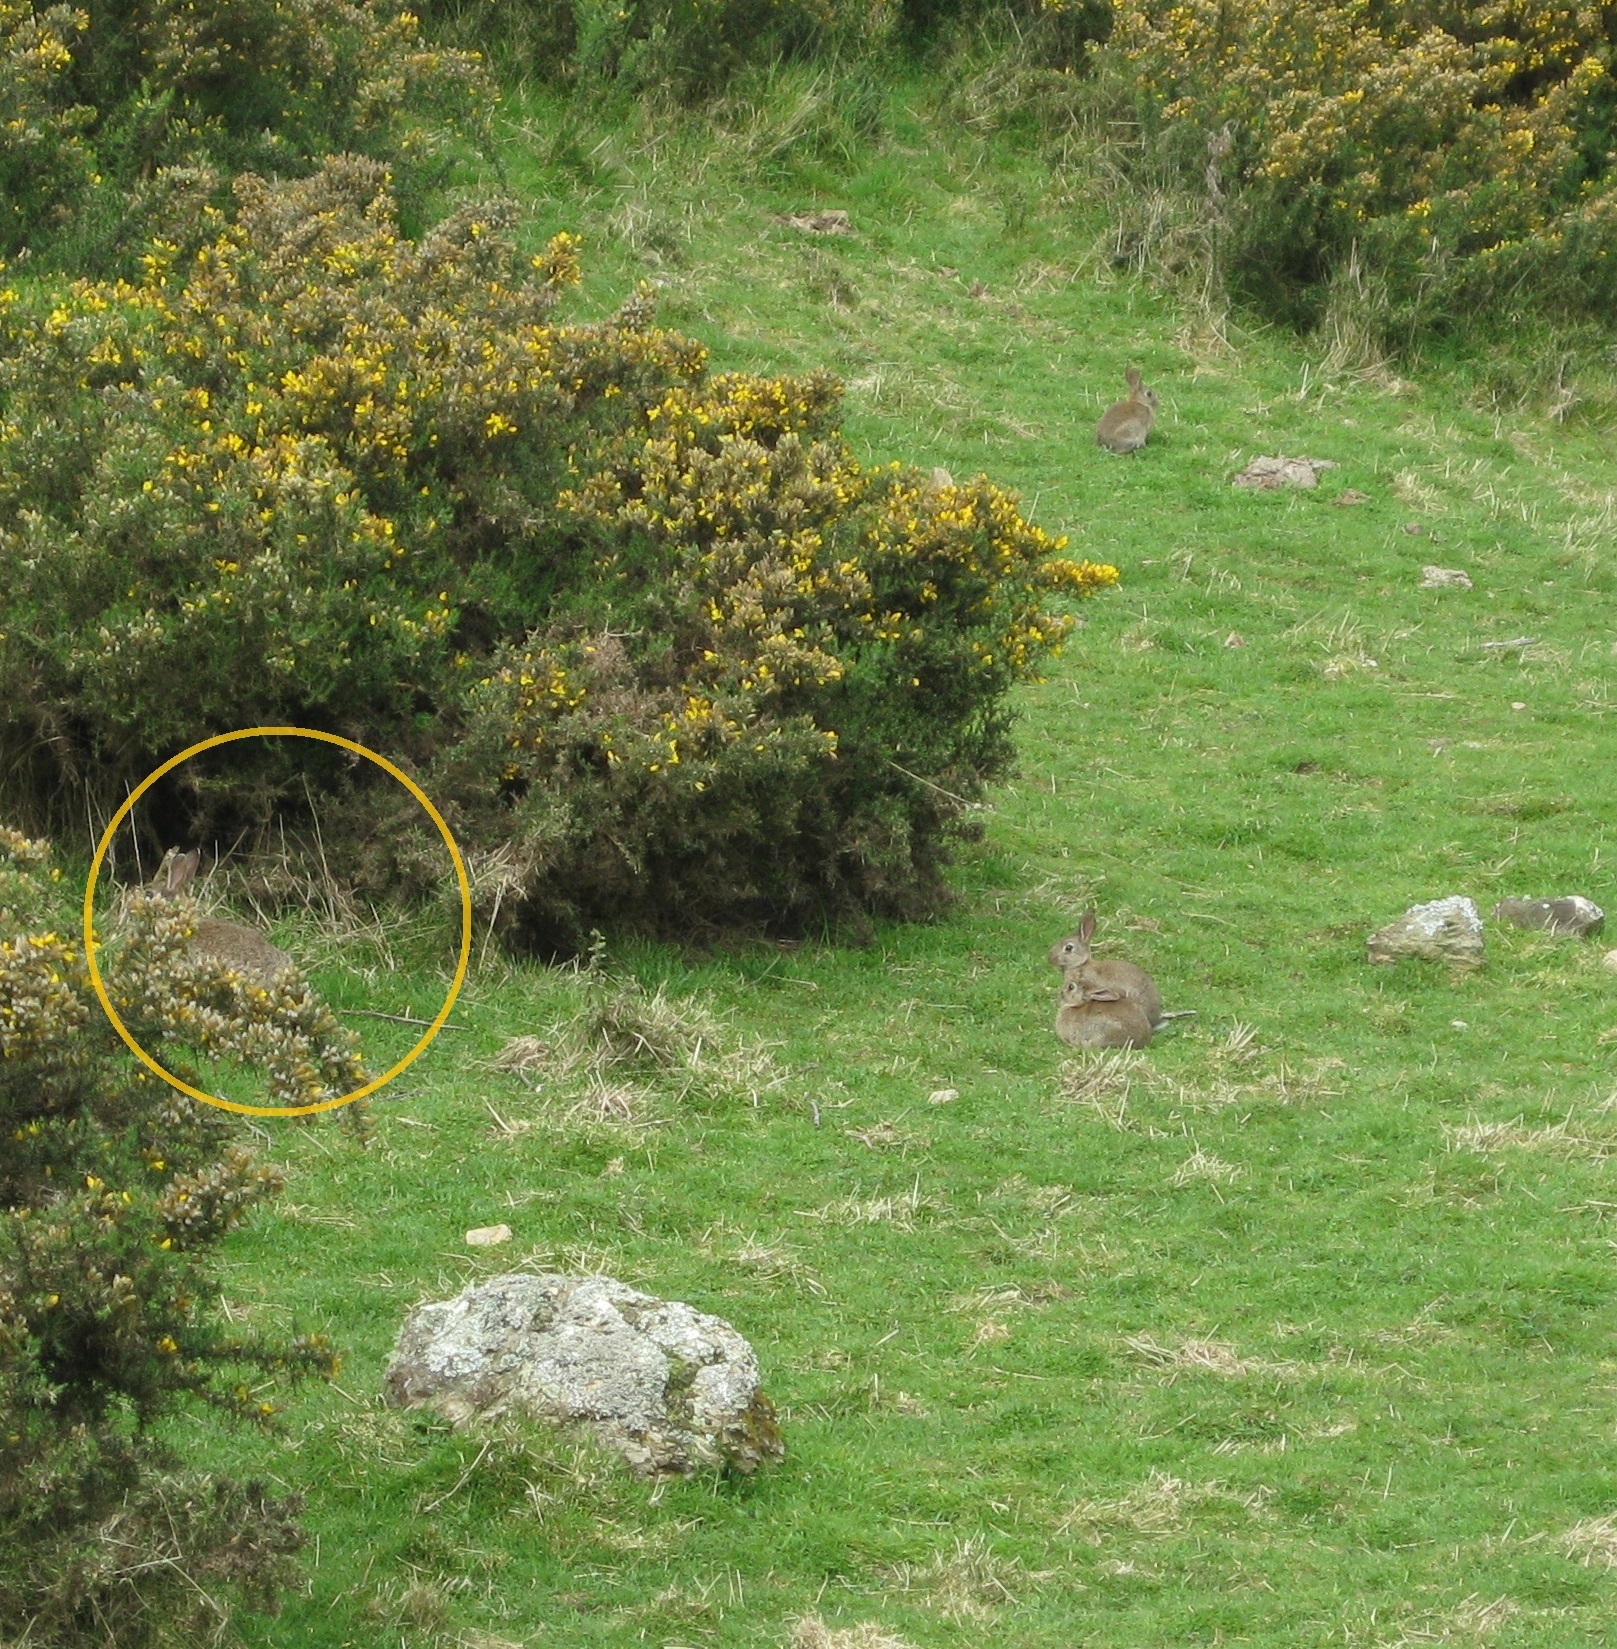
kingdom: Animalia
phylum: Chordata
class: Mammalia
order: Lagomorpha
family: Leporidae
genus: Oryctolagus
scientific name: Oryctolagus cuniculus
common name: European rabbit
